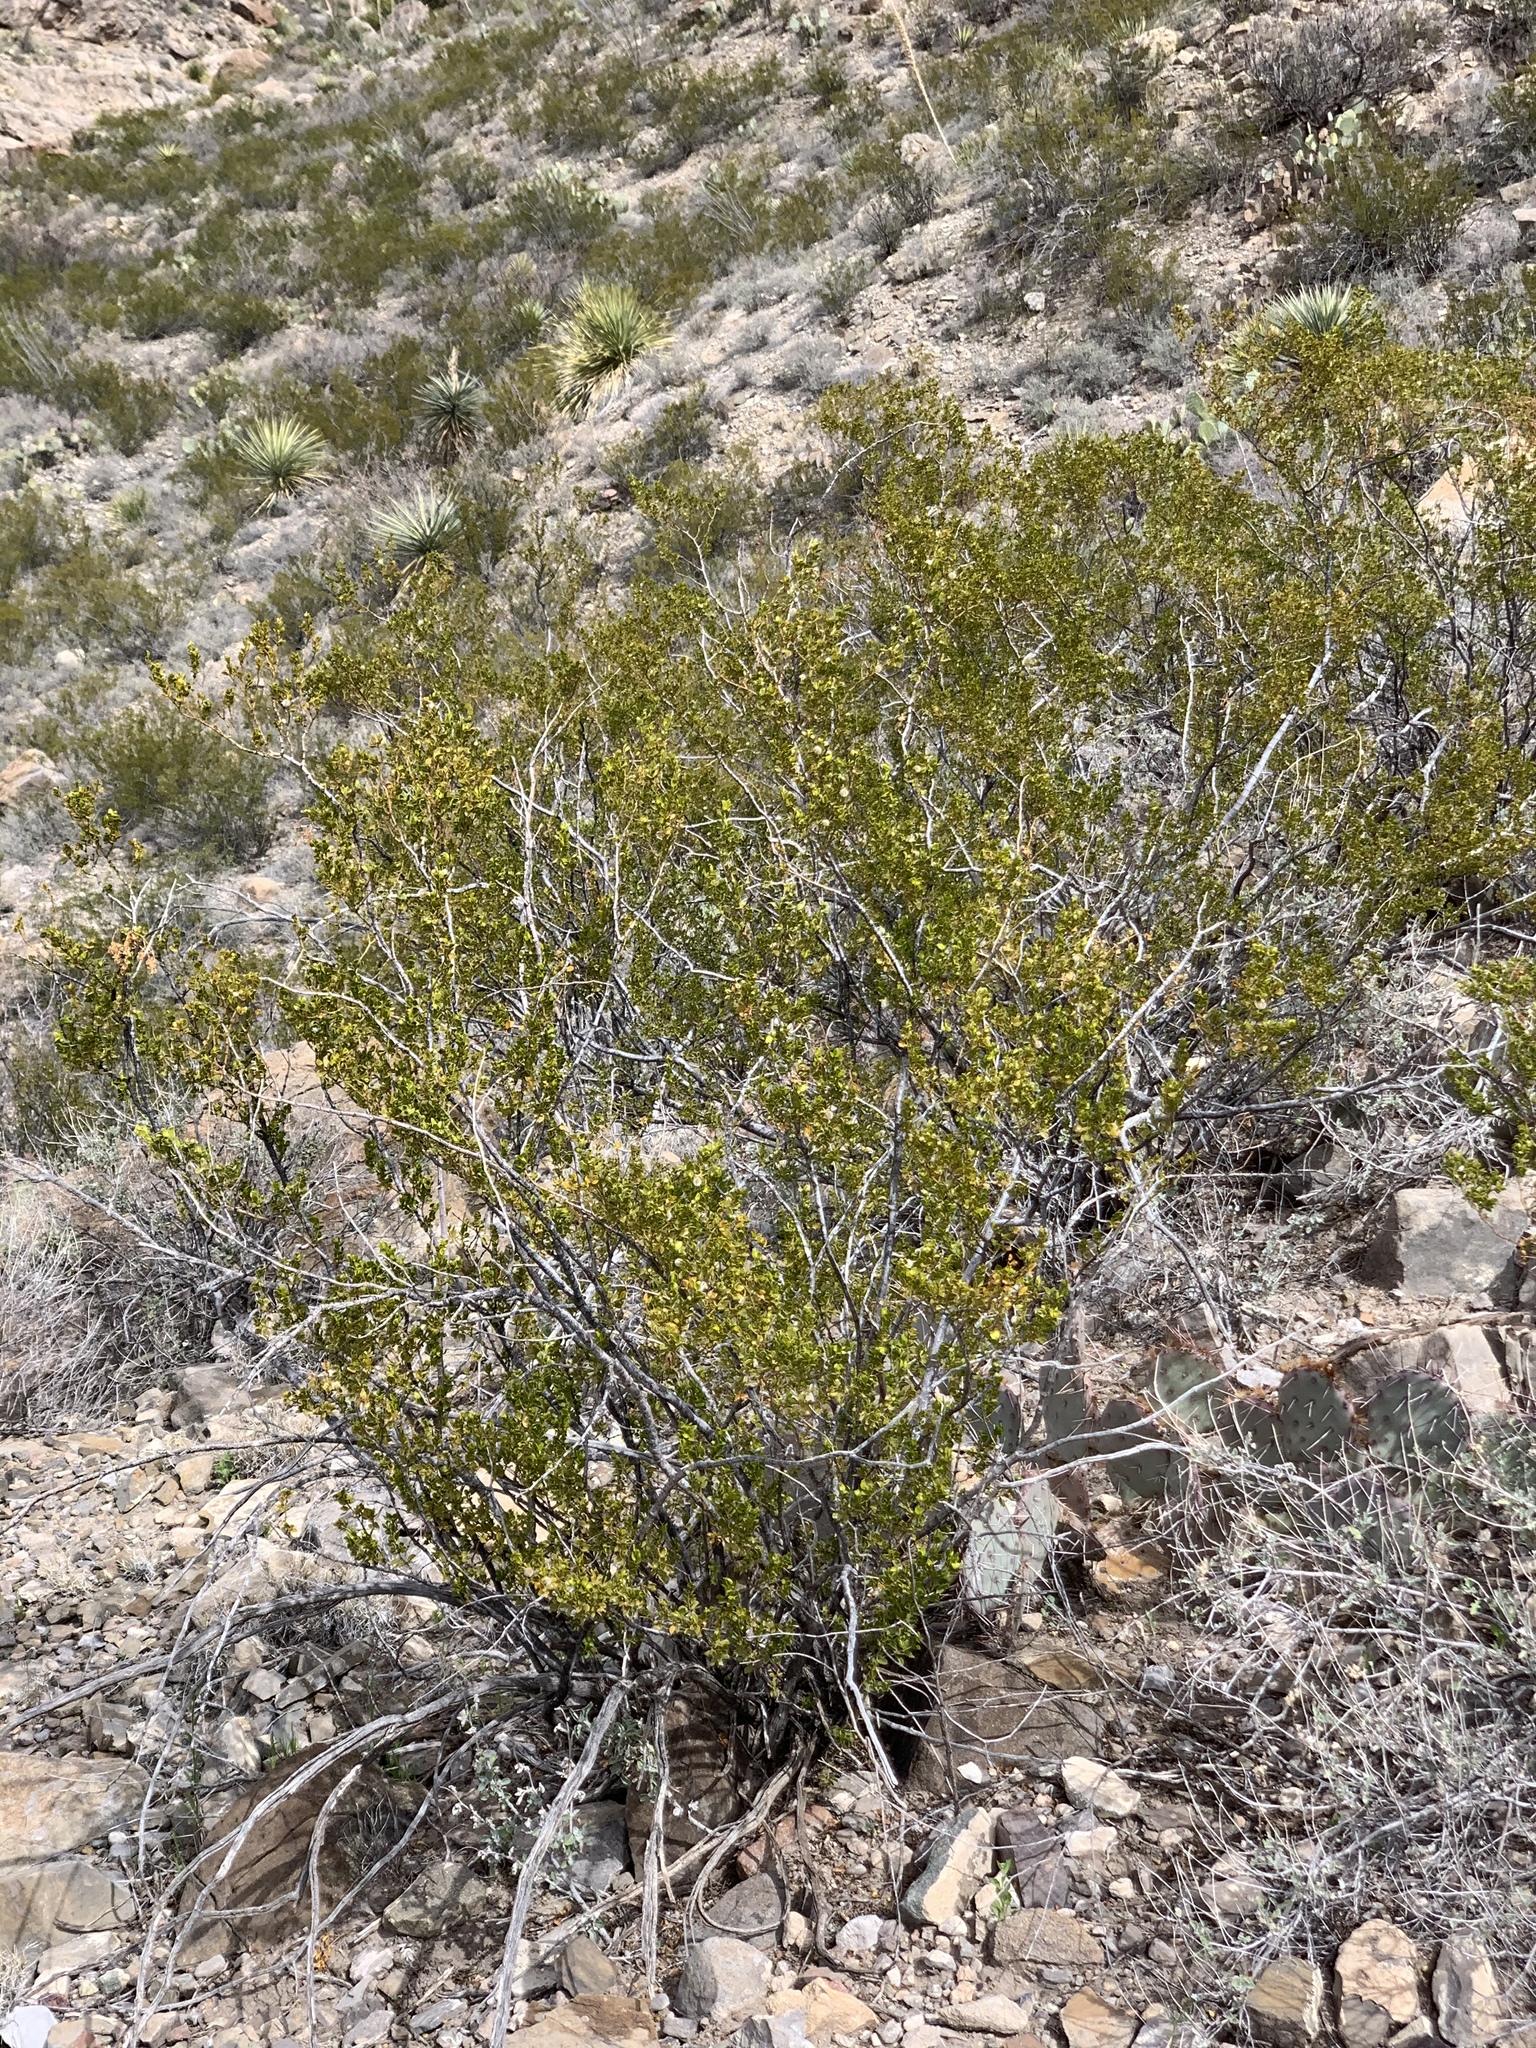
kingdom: Plantae
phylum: Tracheophyta
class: Magnoliopsida
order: Zygophyllales
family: Zygophyllaceae
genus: Larrea
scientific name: Larrea tridentata
